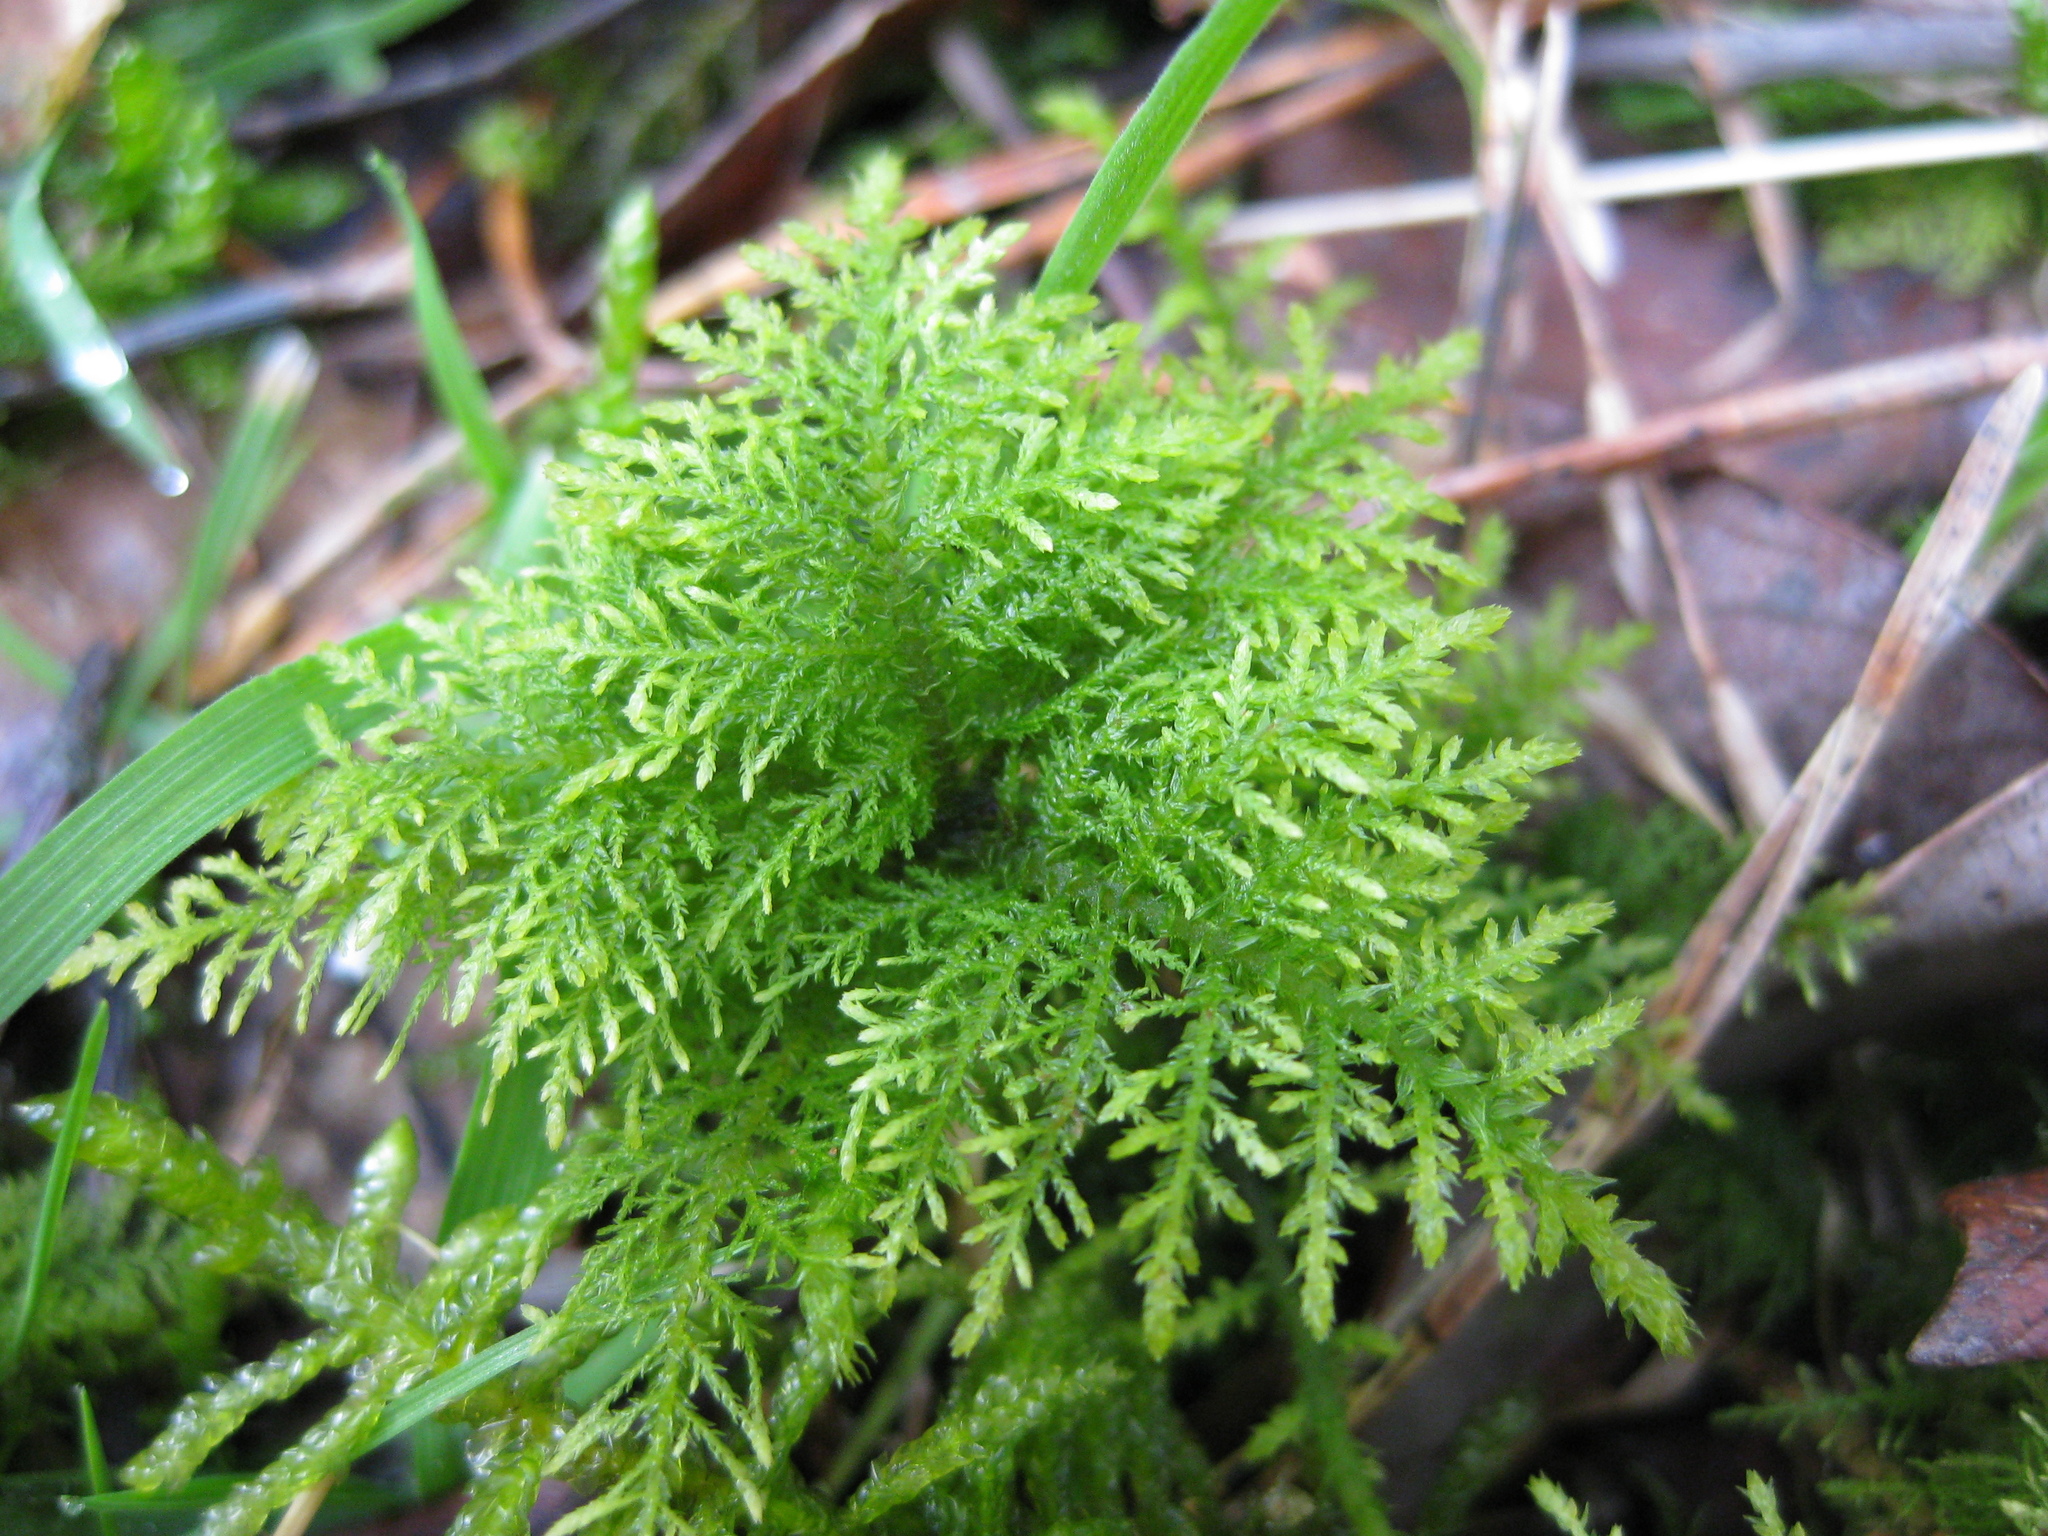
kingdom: Plantae
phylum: Bryophyta
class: Bryopsida
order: Hypnales
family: Thuidiaceae
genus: Thuidium
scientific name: Thuidium tamariscinum
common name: Common tamarisk-moss
